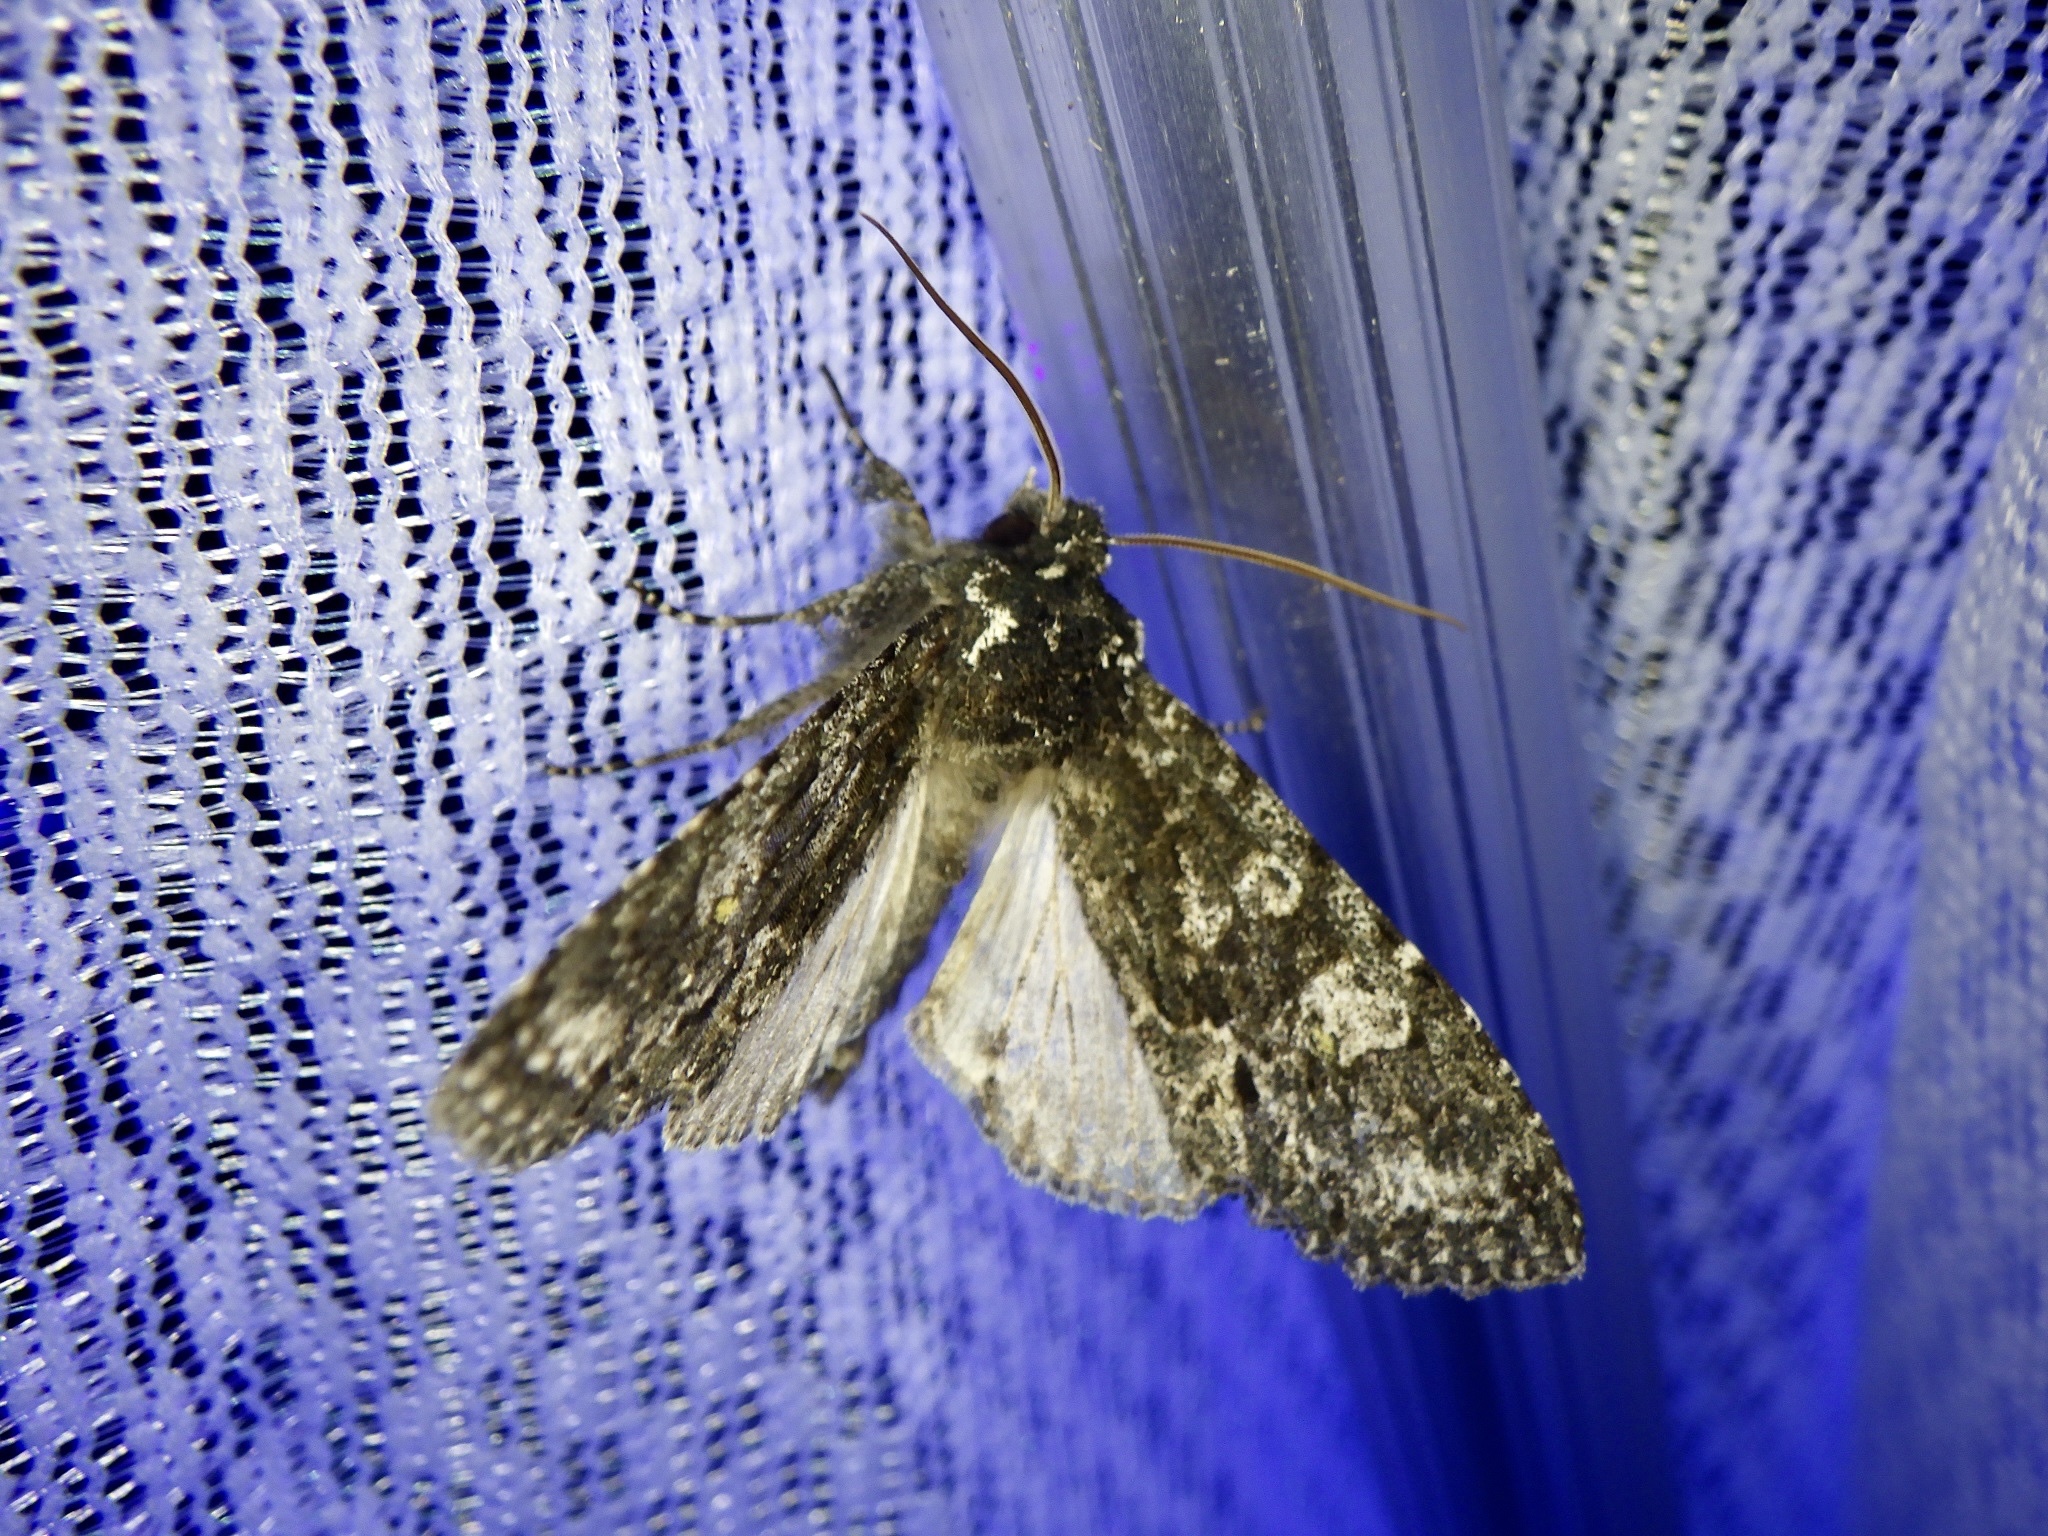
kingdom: Animalia
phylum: Arthropoda
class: Insecta
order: Lepidoptera
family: Noctuidae
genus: Belosticta
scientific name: Belosticta funesta
